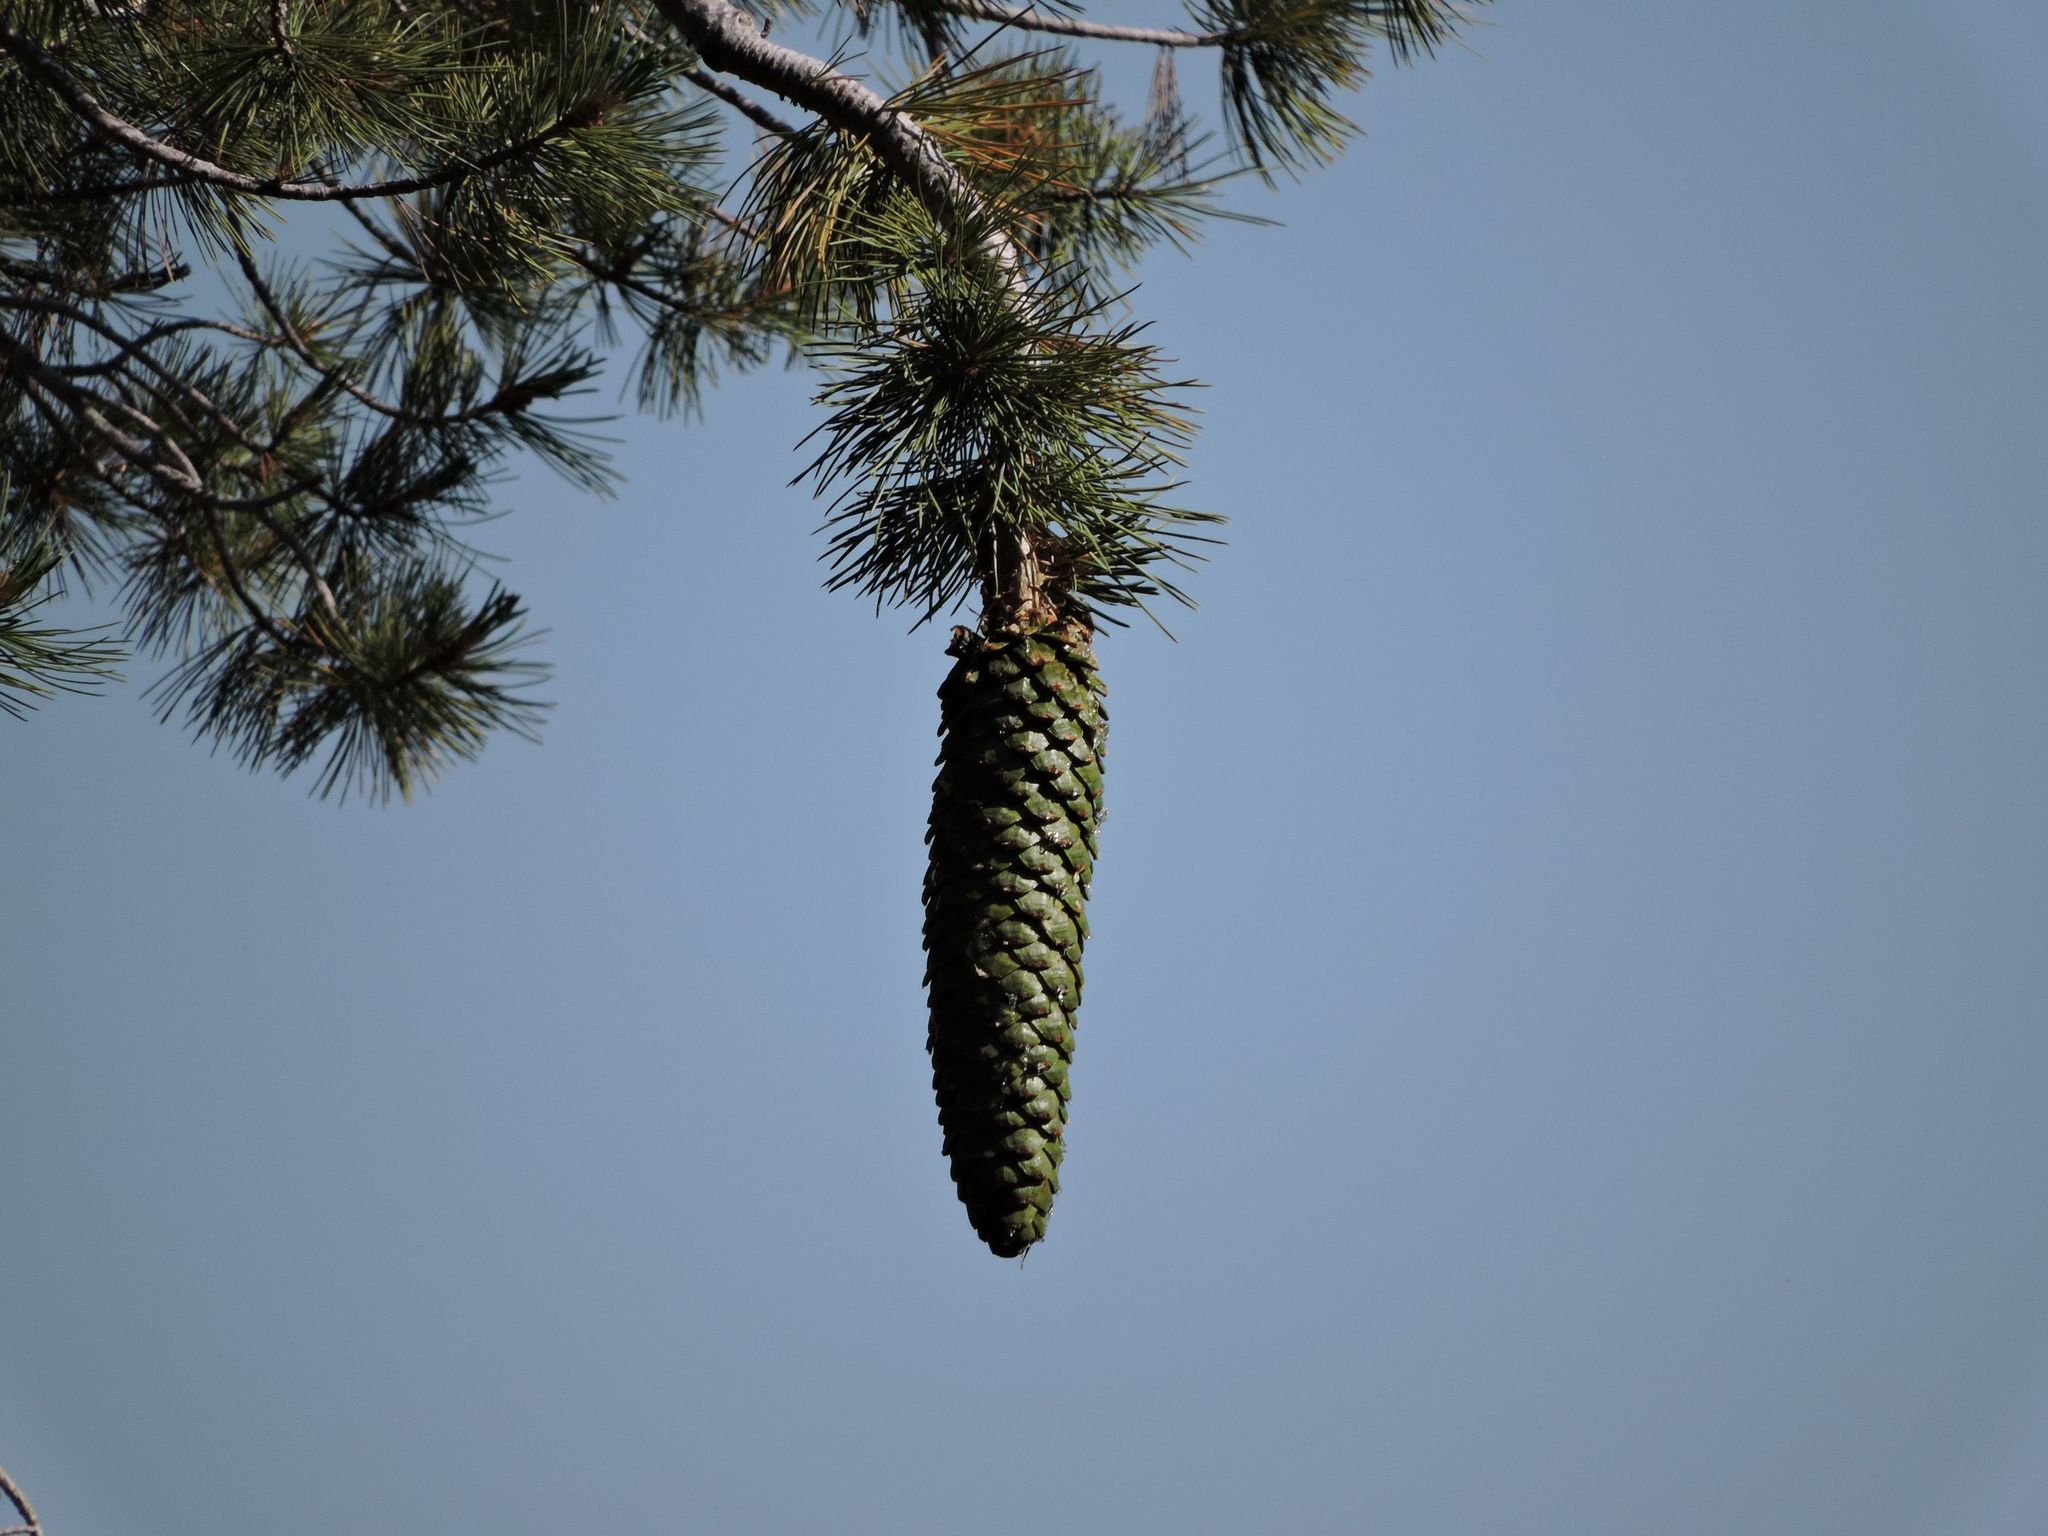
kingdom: Plantae
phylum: Tracheophyta
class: Pinopsida
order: Pinales
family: Pinaceae
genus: Pinus
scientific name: Pinus lambertiana
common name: Sugar pine
